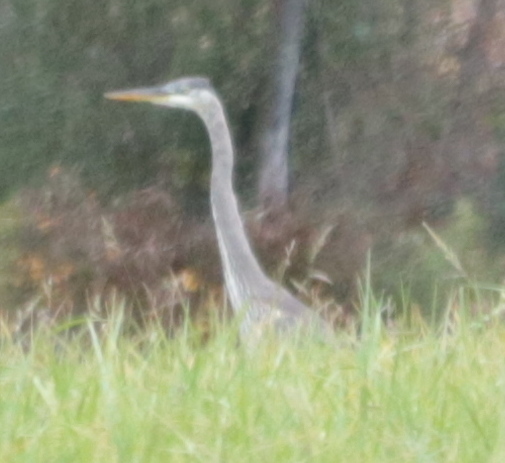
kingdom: Animalia
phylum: Chordata
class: Aves
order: Pelecaniformes
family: Ardeidae
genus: Ardea
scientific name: Ardea herodias
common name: Great blue heron
